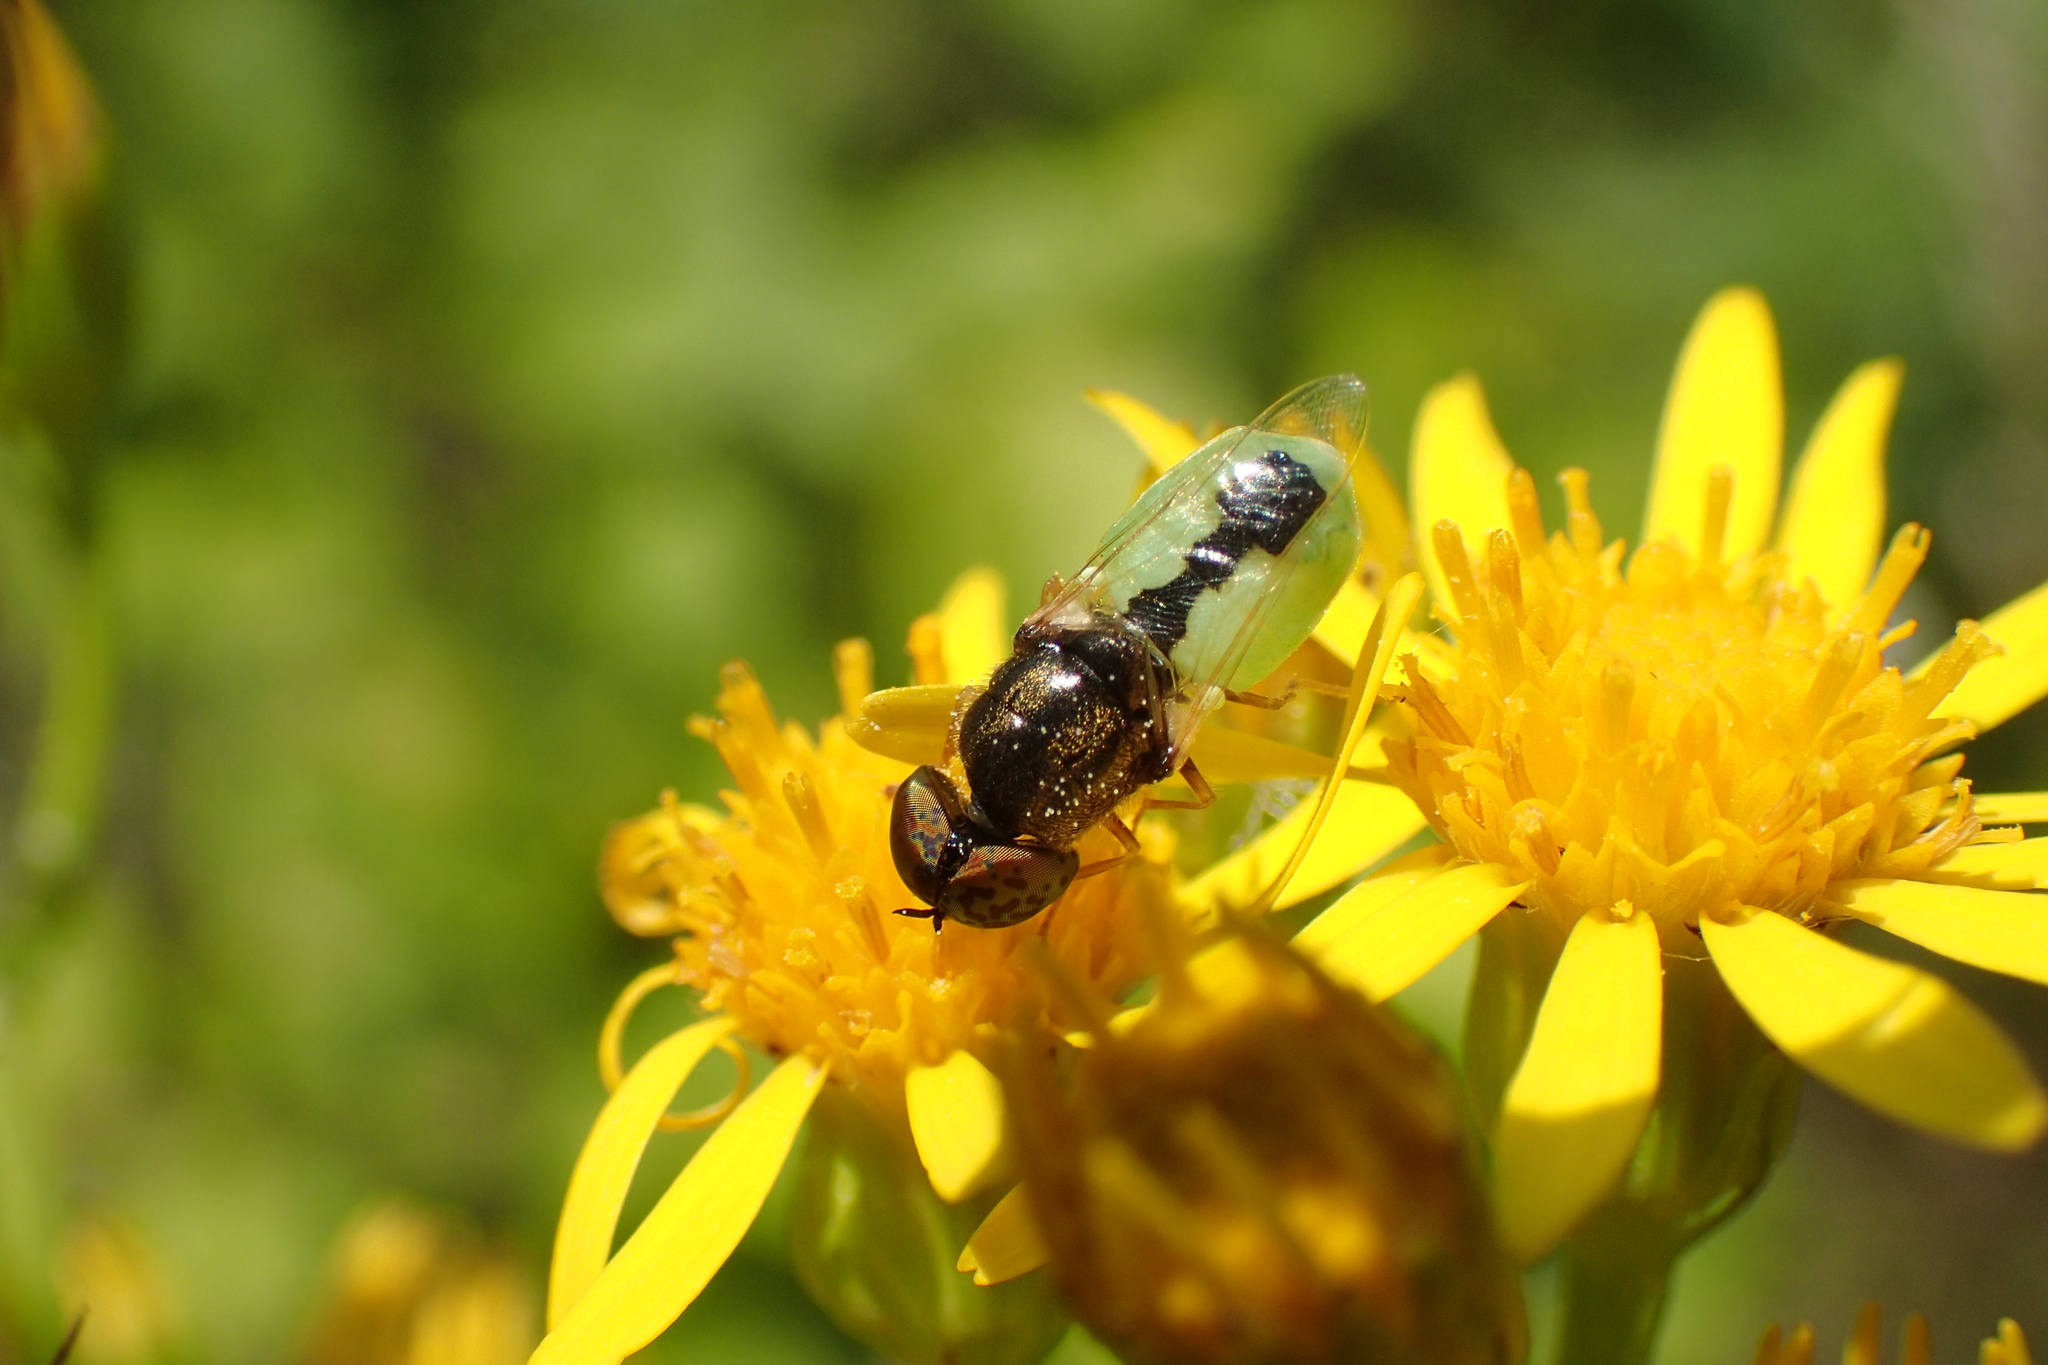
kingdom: Animalia
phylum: Arthropoda
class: Insecta
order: Diptera
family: Stratiomyidae
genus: Oplodontha
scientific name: Oplodontha viridula
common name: Common green colonel
